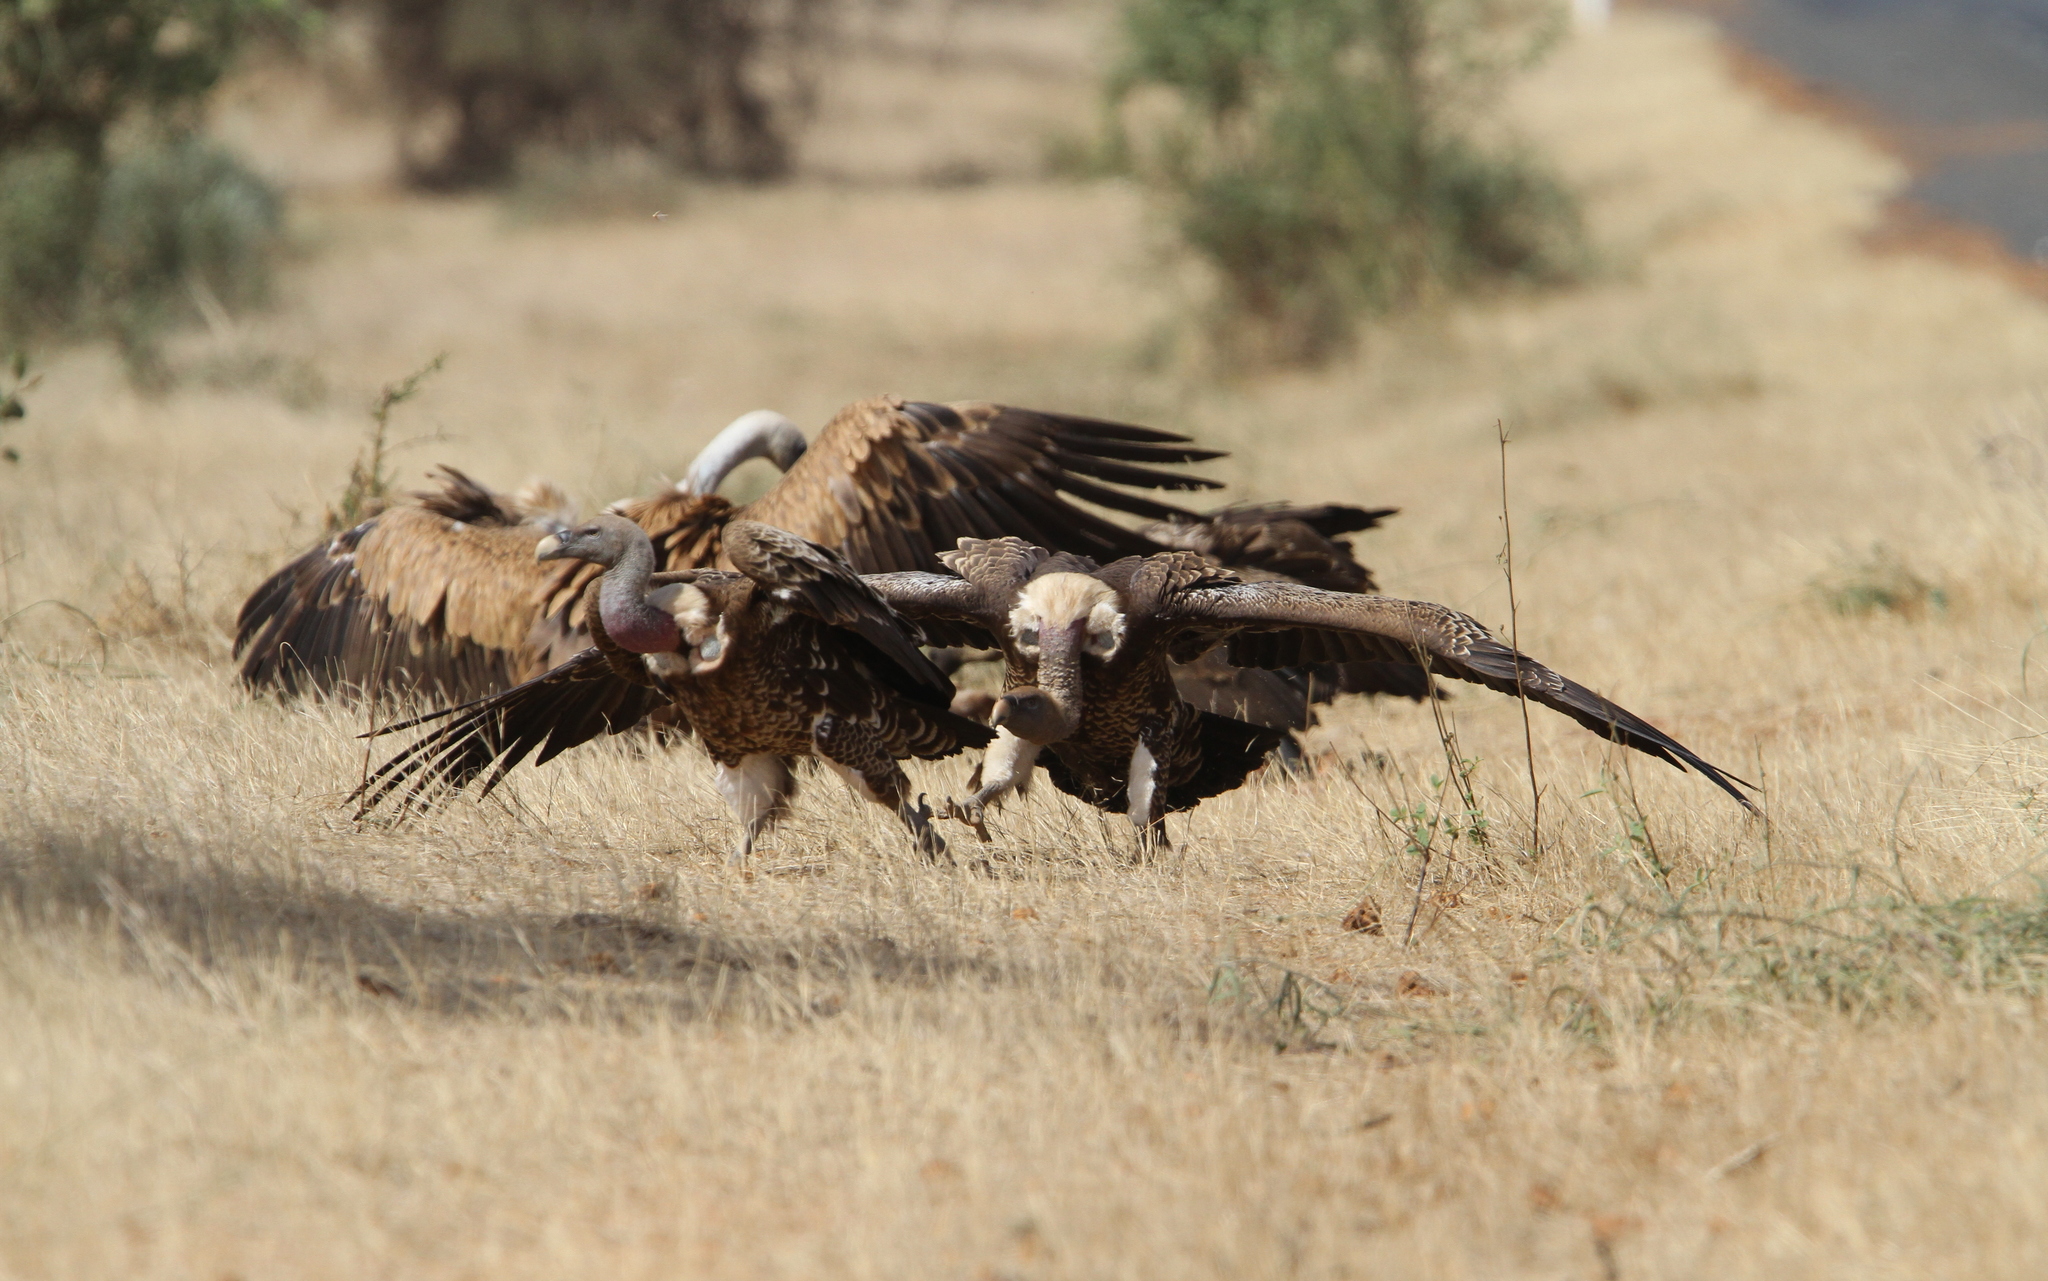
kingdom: Animalia
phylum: Chordata
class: Aves
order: Accipitriformes
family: Accipitridae
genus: Gyps
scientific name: Gyps rueppellii
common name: Rüppell's vulture
